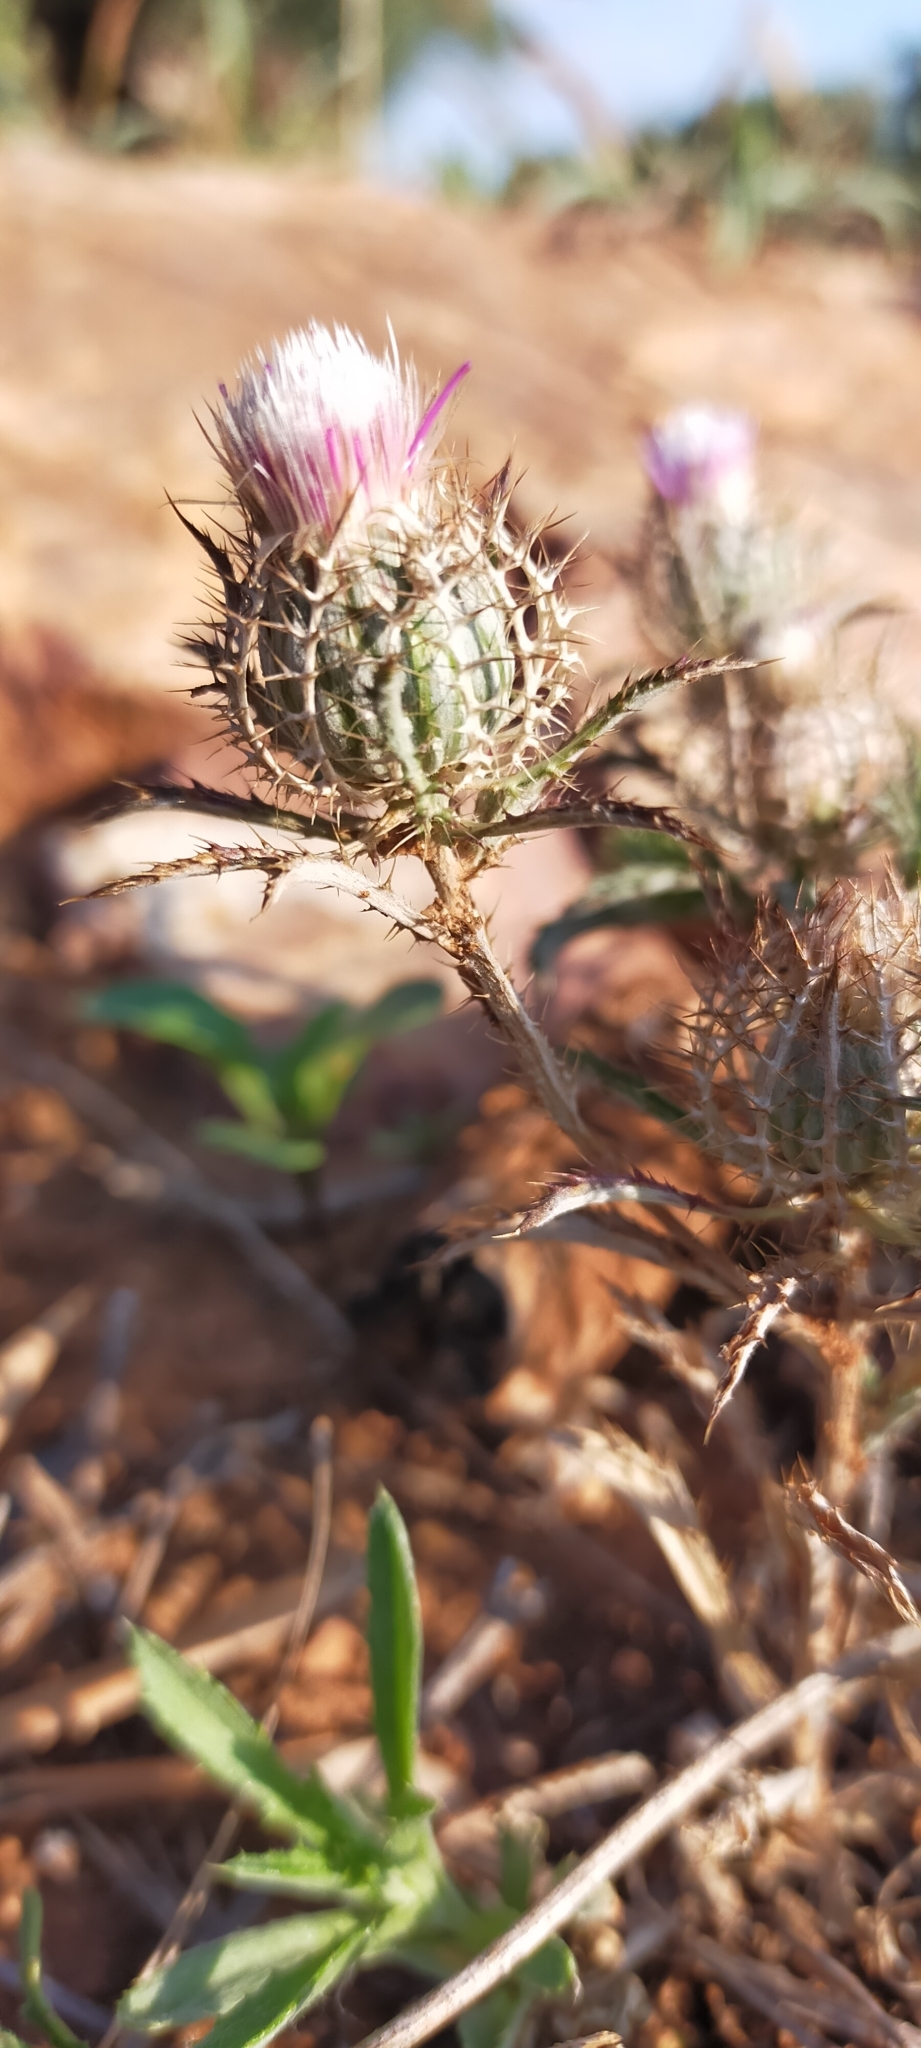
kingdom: Plantae
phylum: Tracheophyta
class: Magnoliopsida
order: Asterales
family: Asteraceae
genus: Atractylis
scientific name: Atractylis cancellata
